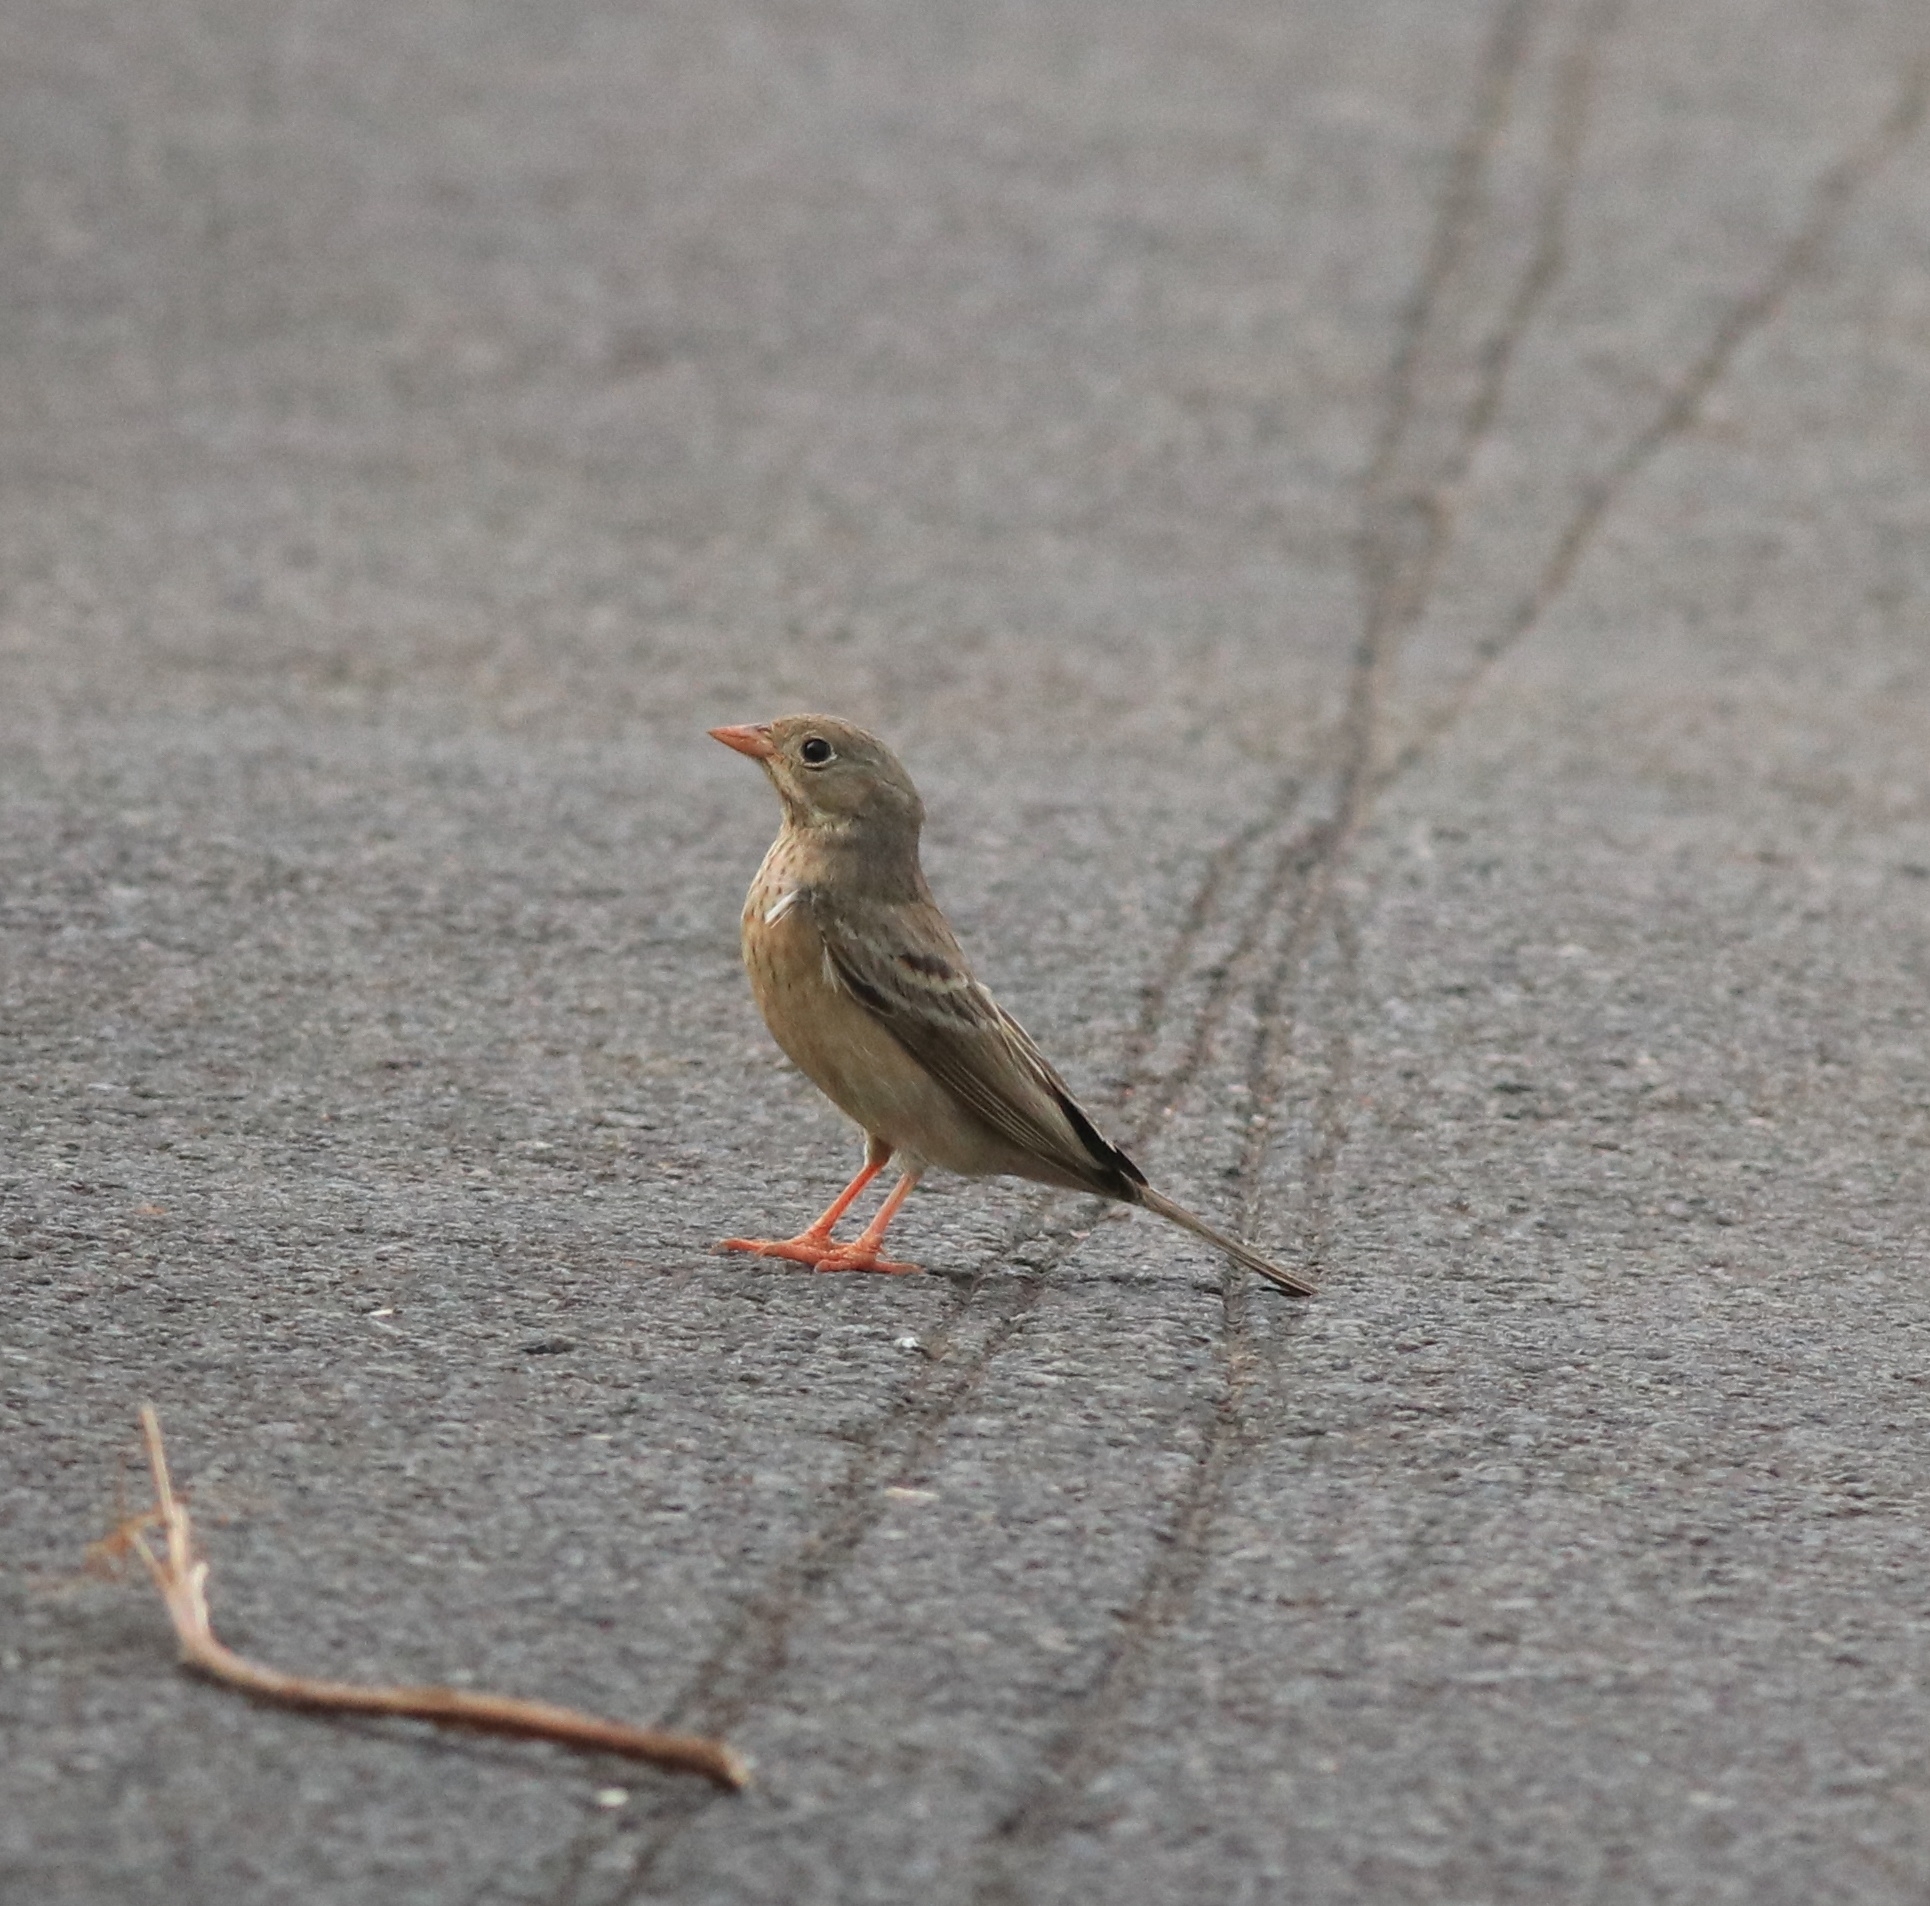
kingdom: Animalia
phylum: Chordata
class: Aves
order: Passeriformes
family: Emberizidae
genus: Emberiza
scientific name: Emberiza buchanani
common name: Grey-necked bunting
